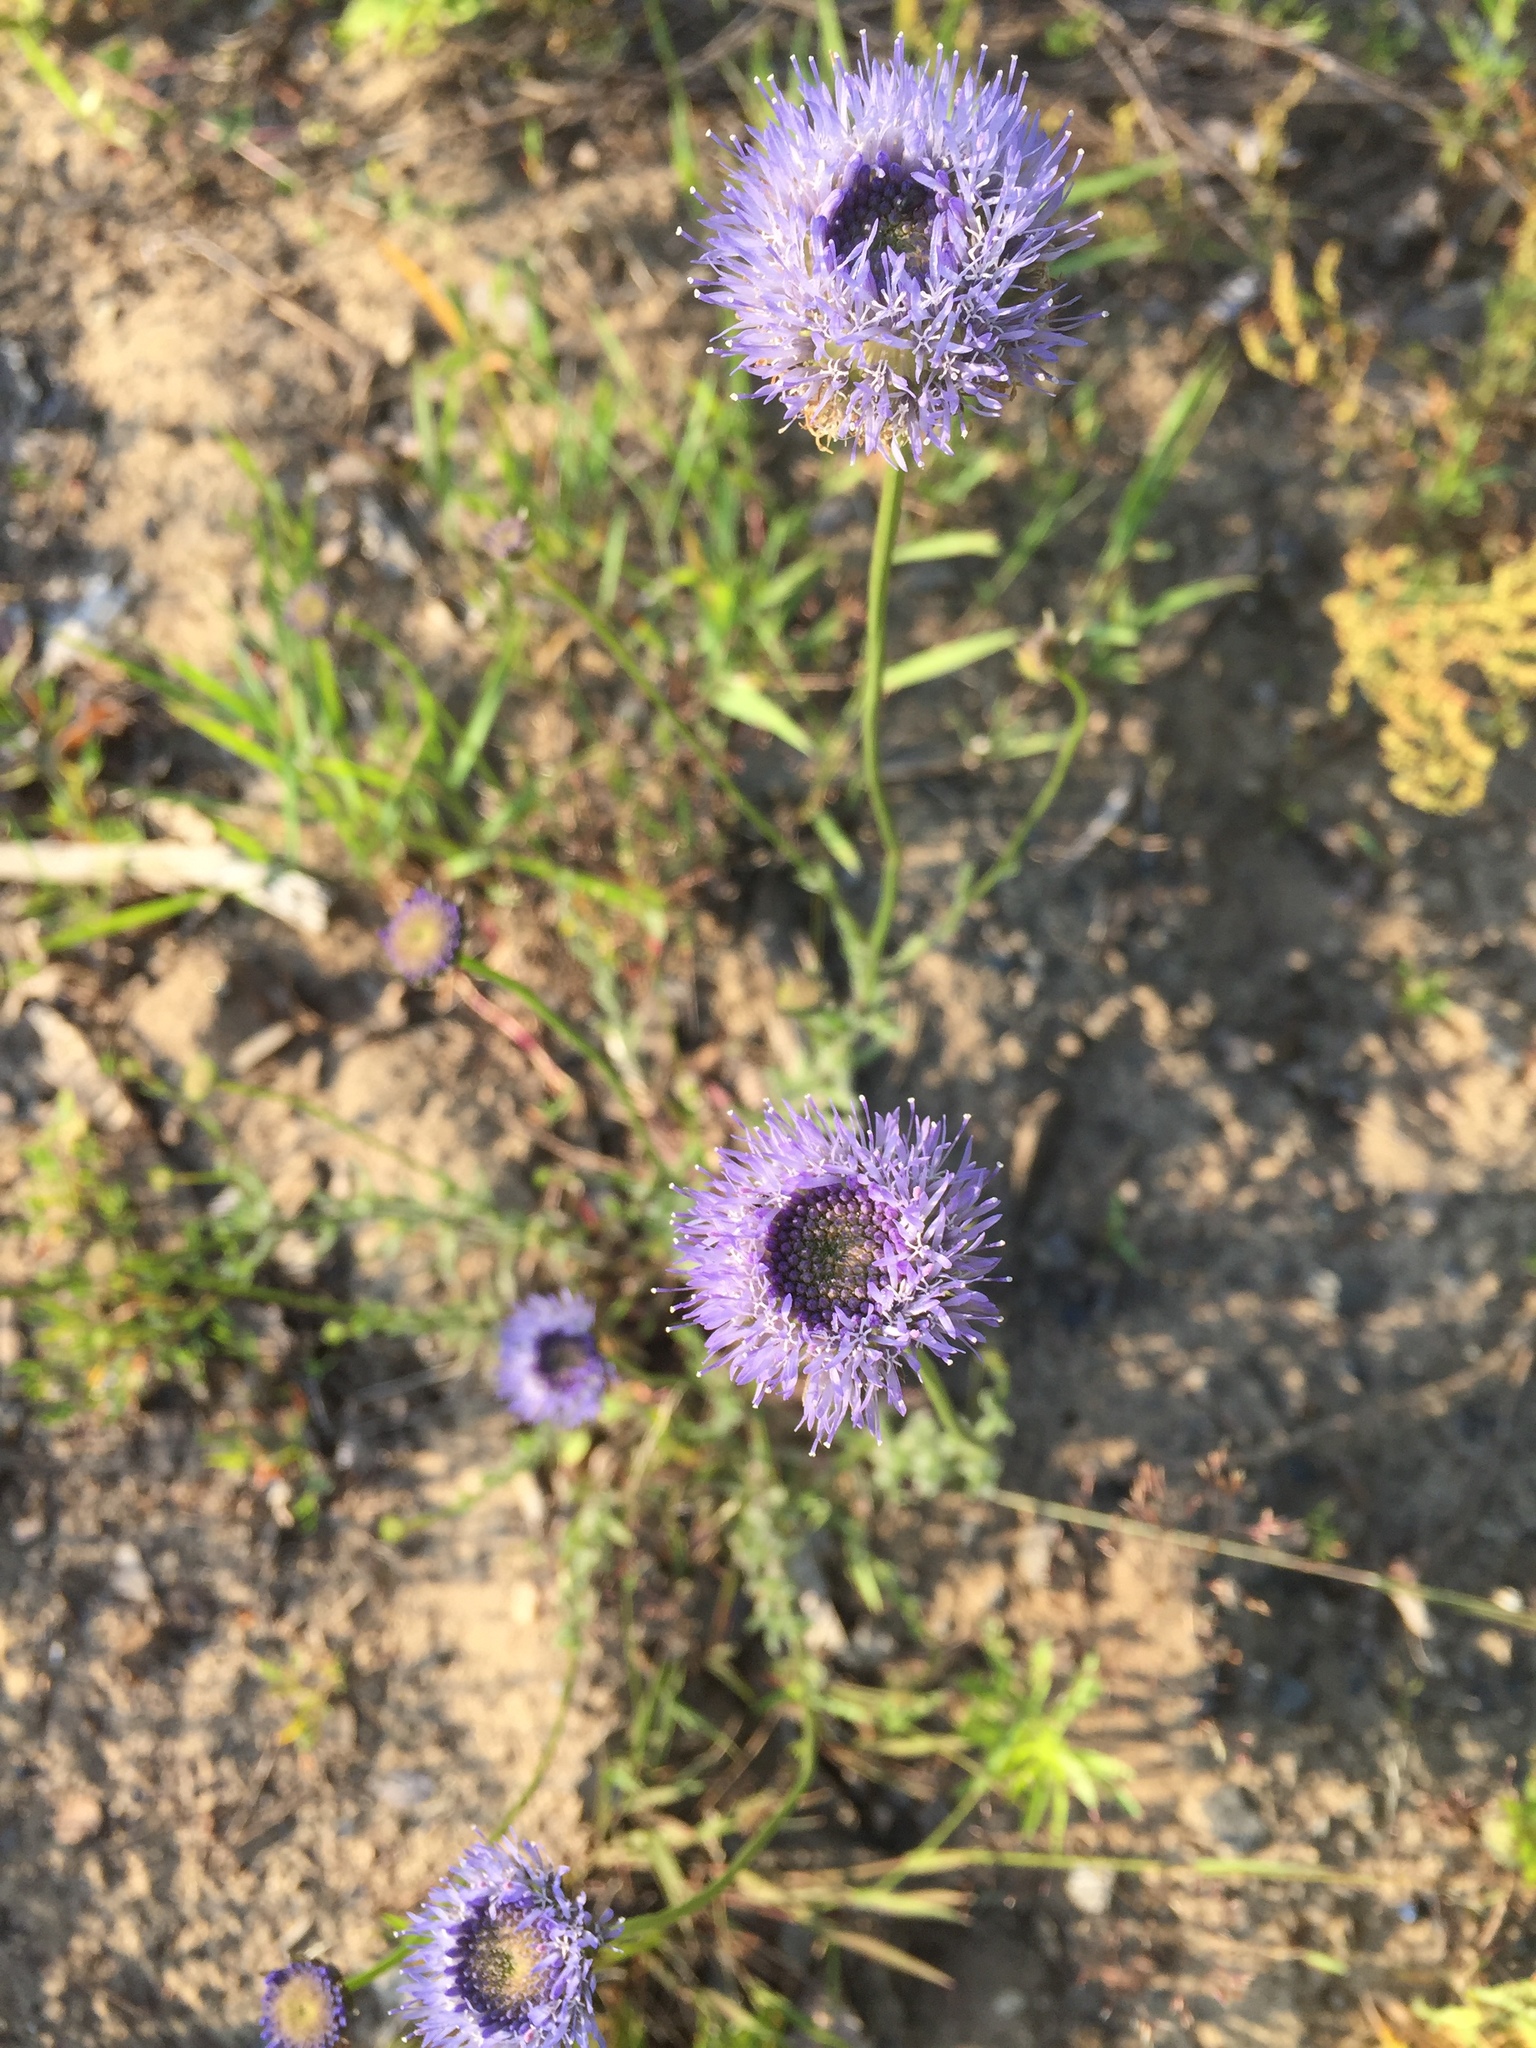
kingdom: Plantae
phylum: Tracheophyta
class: Magnoliopsida
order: Asterales
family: Campanulaceae
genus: Jasione
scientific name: Jasione montana
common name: Sheep's-bit
